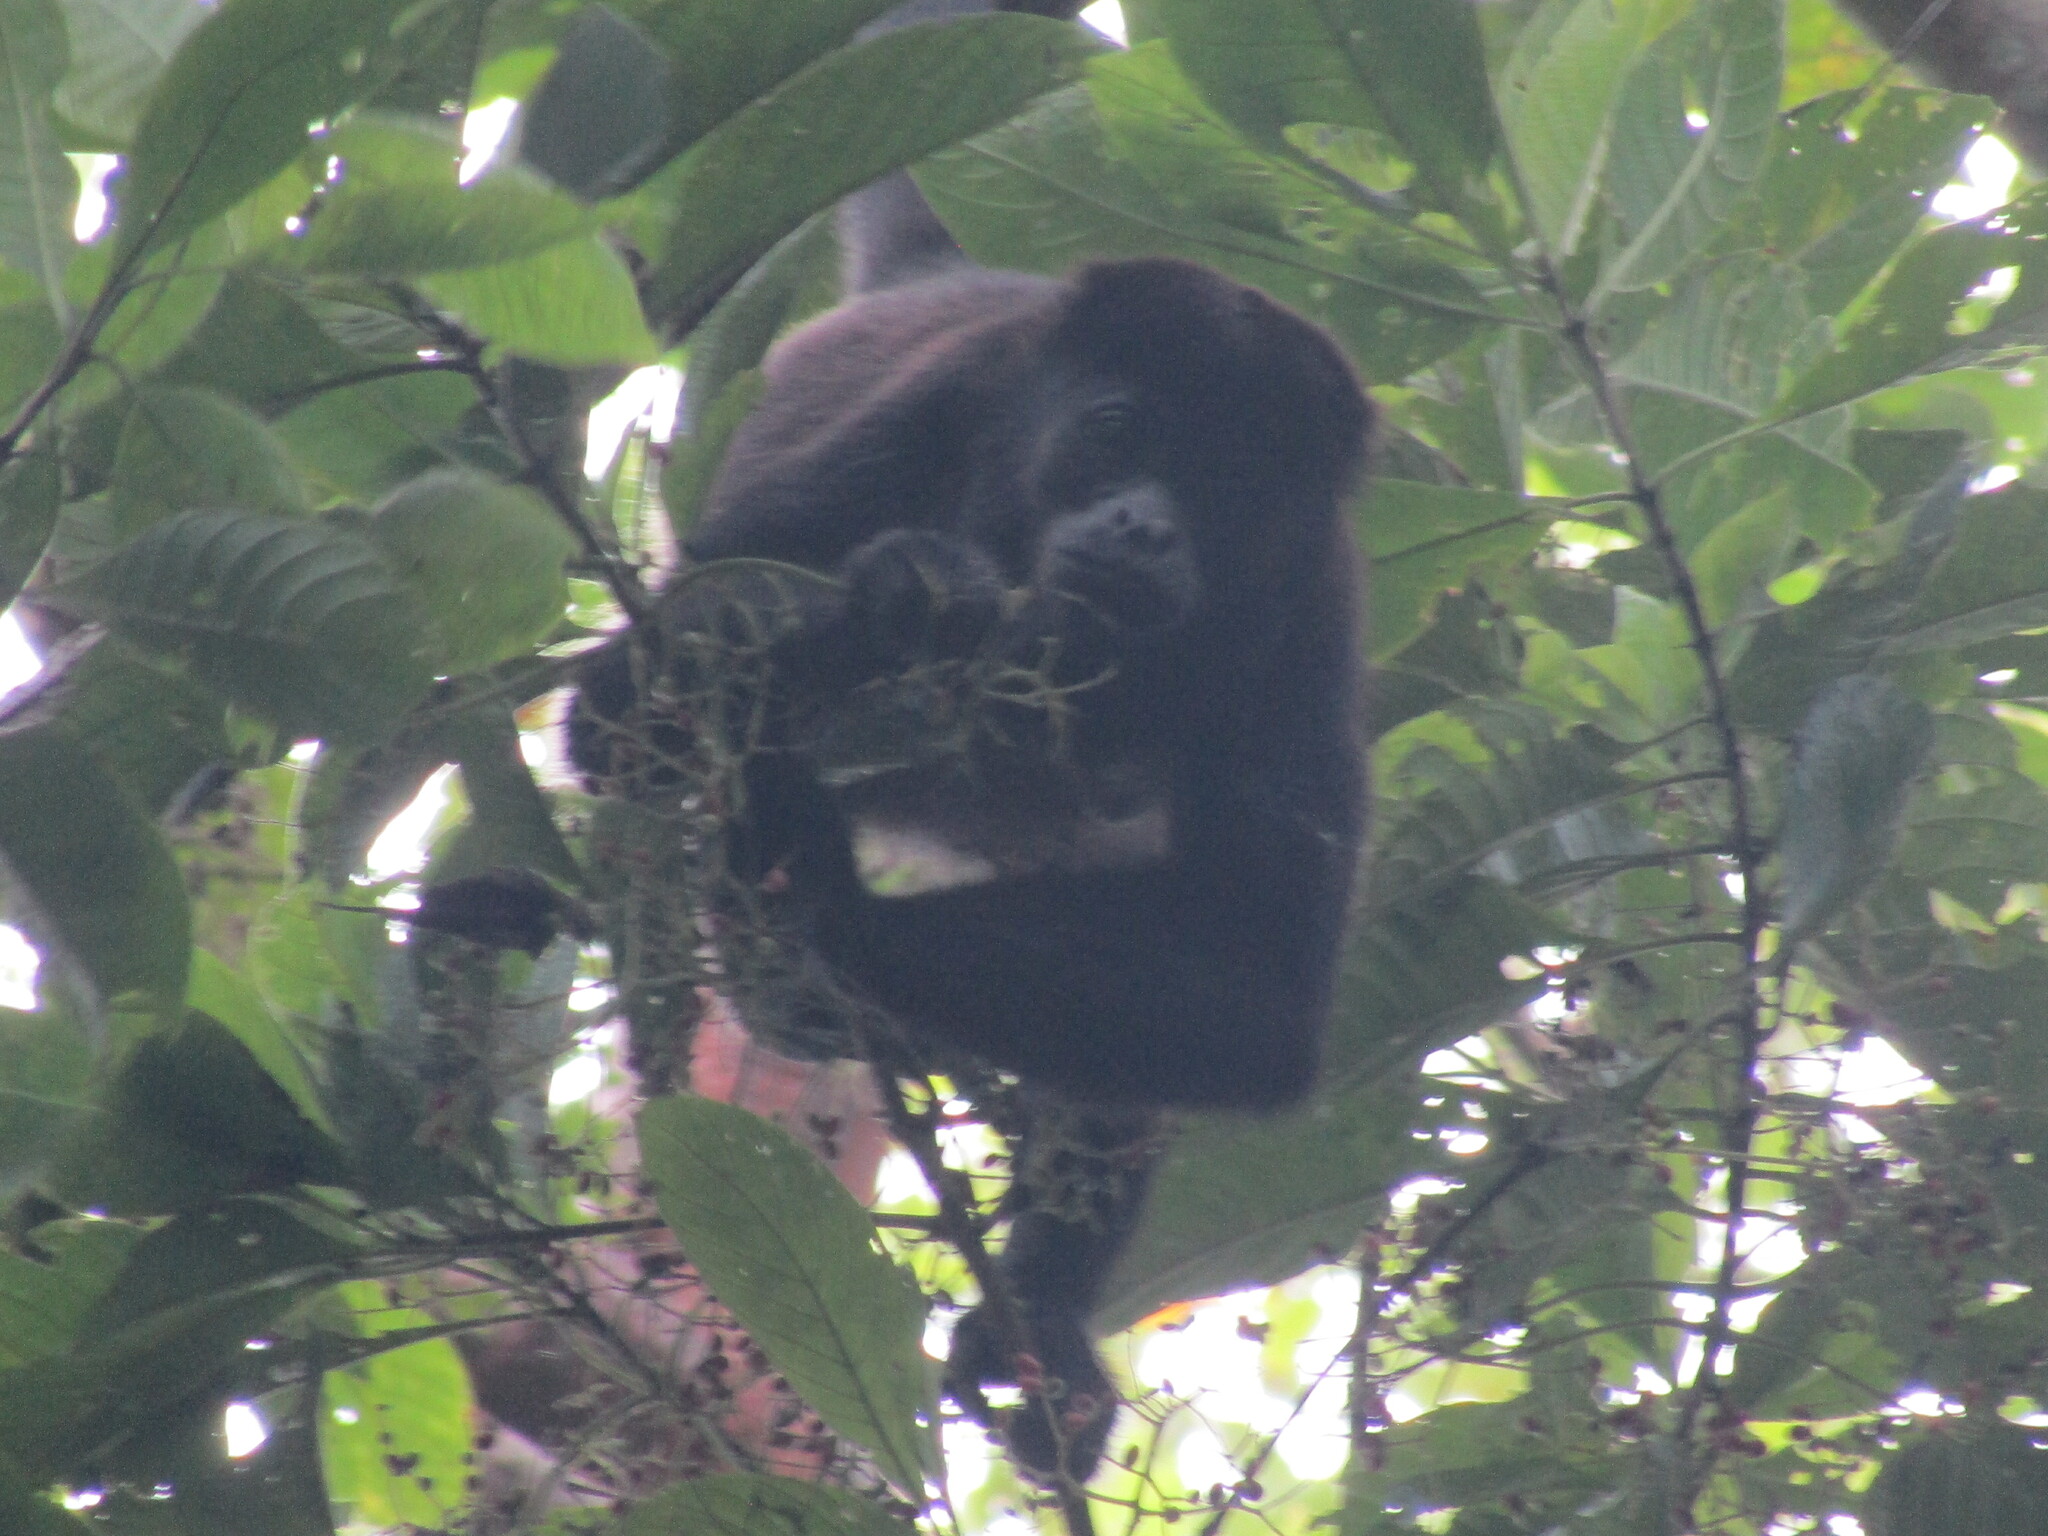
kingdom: Animalia
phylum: Chordata
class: Mammalia
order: Primates
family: Atelidae
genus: Alouatta
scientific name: Alouatta palliata
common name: Mantled howler
